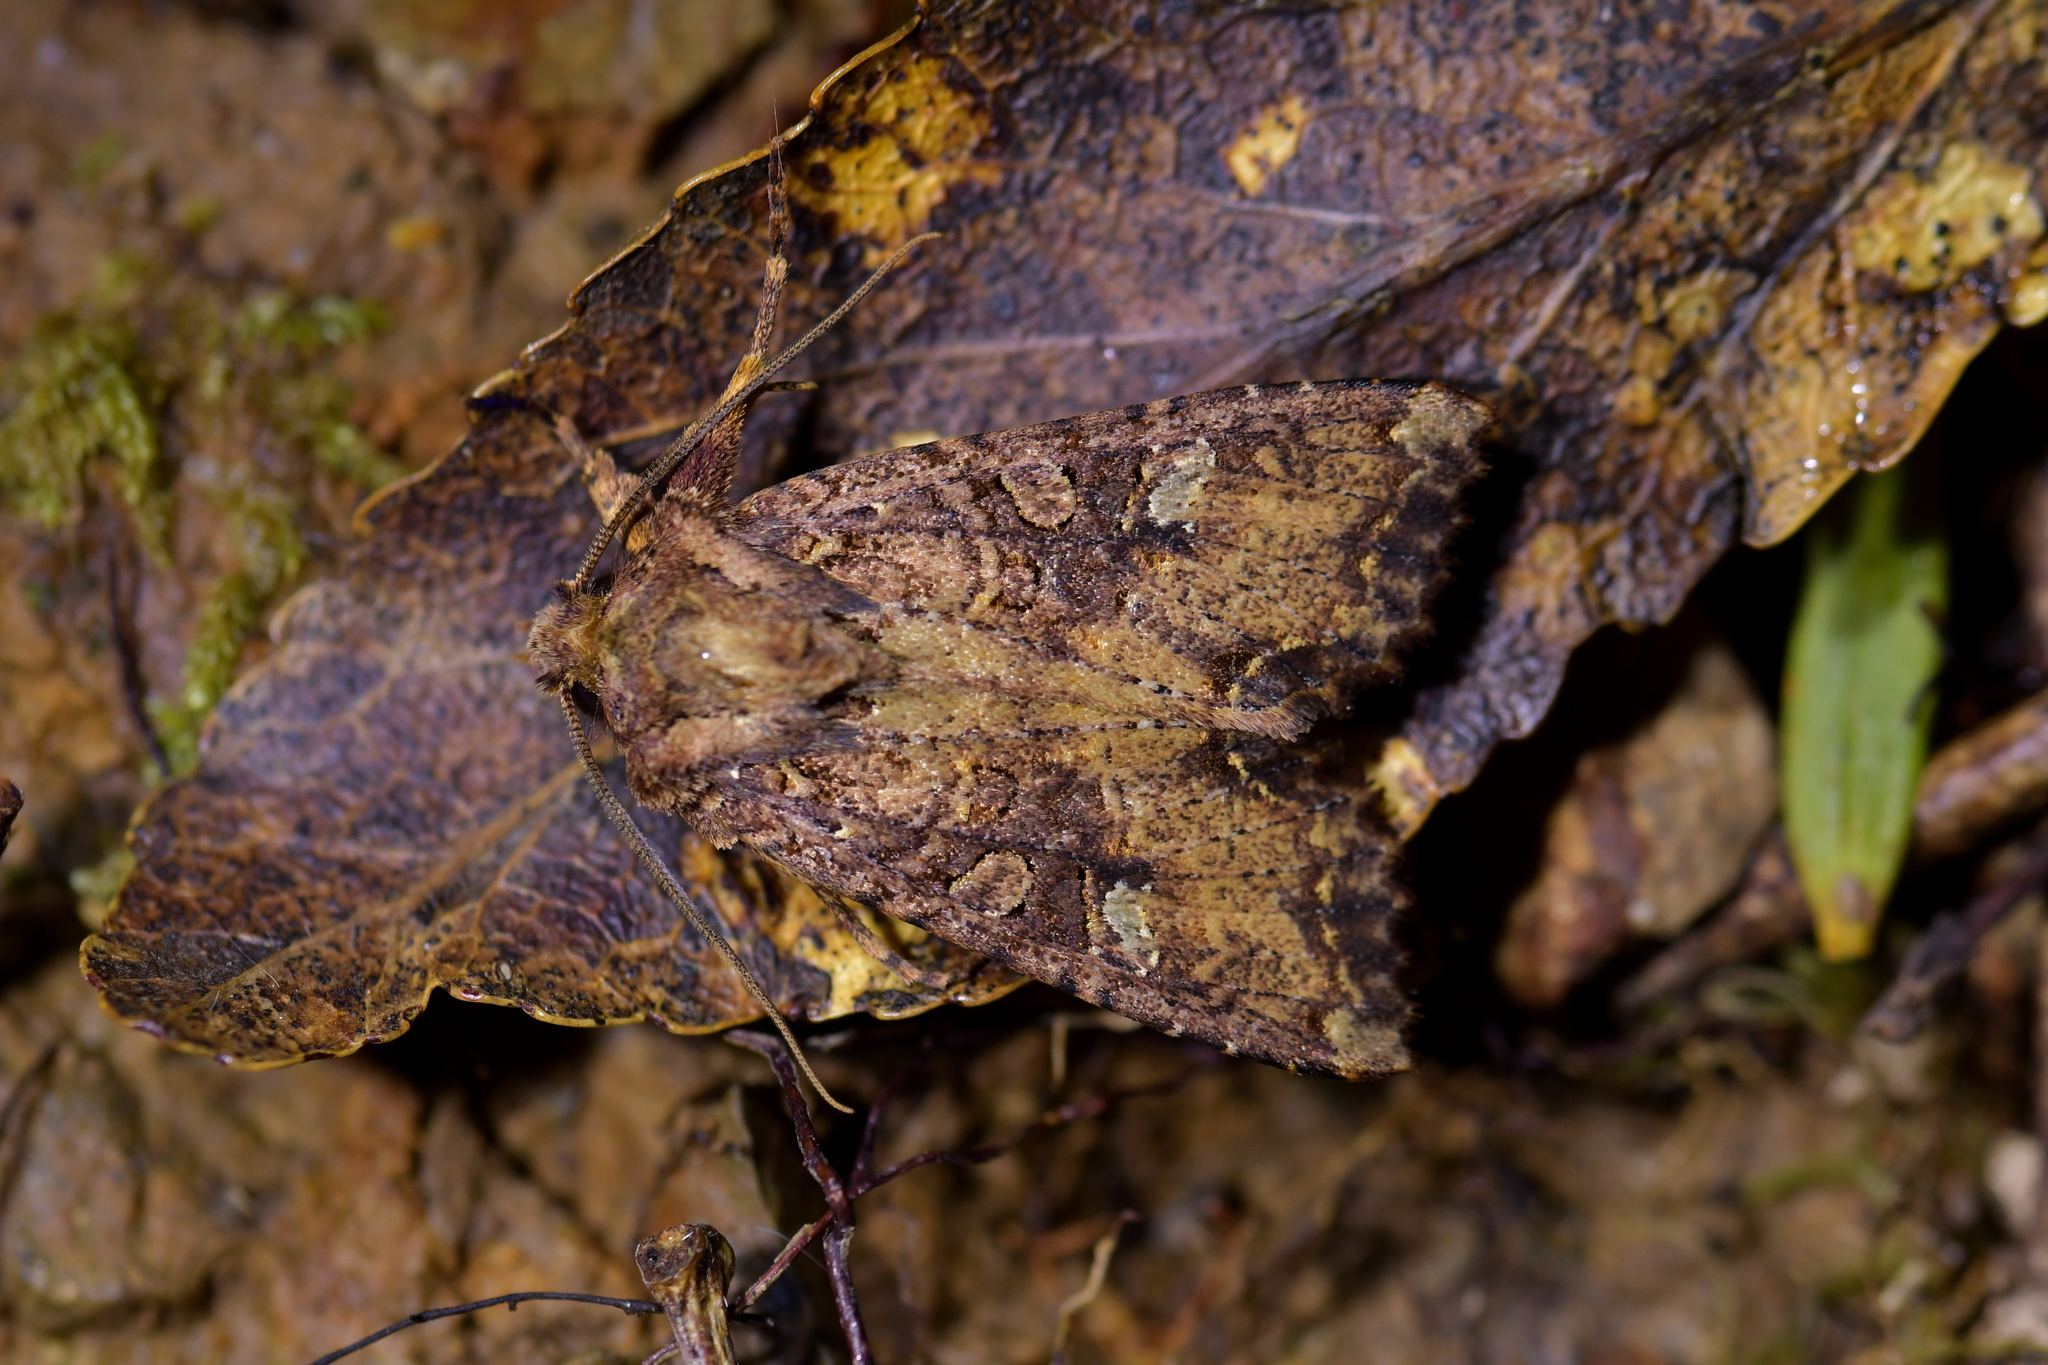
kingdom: Animalia
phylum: Arthropoda
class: Insecta
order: Lepidoptera
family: Noctuidae
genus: Meterana
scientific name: Meterana
